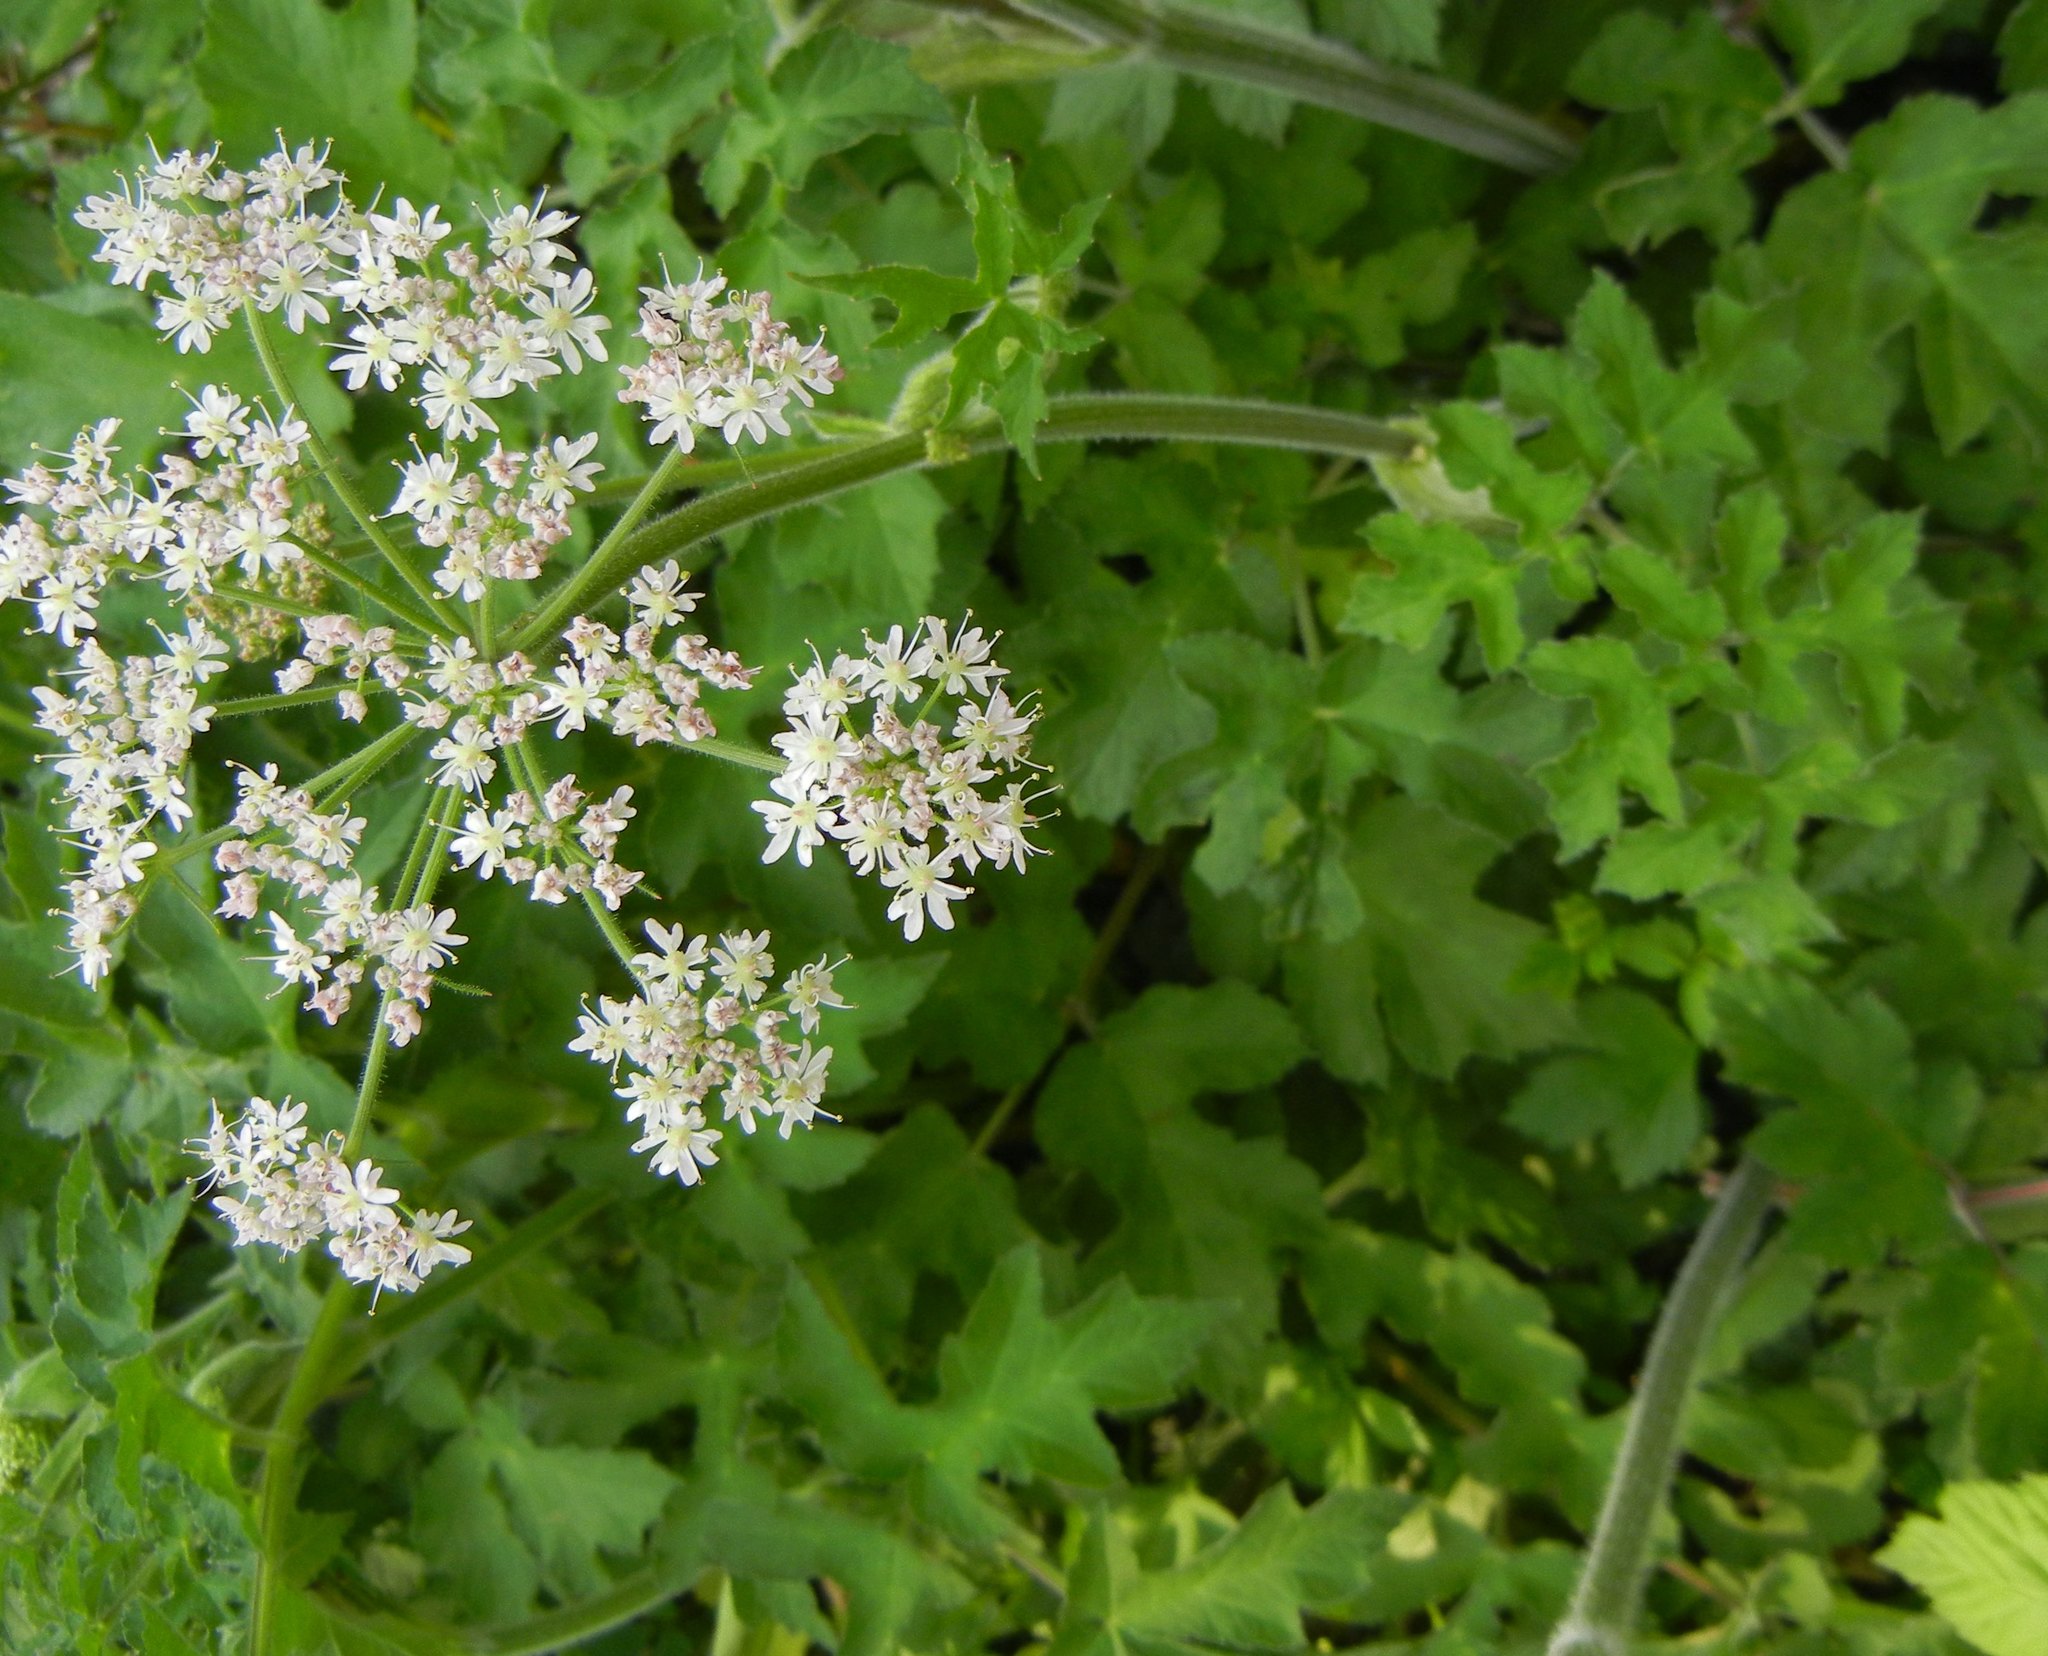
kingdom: Plantae
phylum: Tracheophyta
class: Magnoliopsida
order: Apiales
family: Apiaceae
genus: Heracleum
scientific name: Heracleum sphondylium
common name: Hogweed
